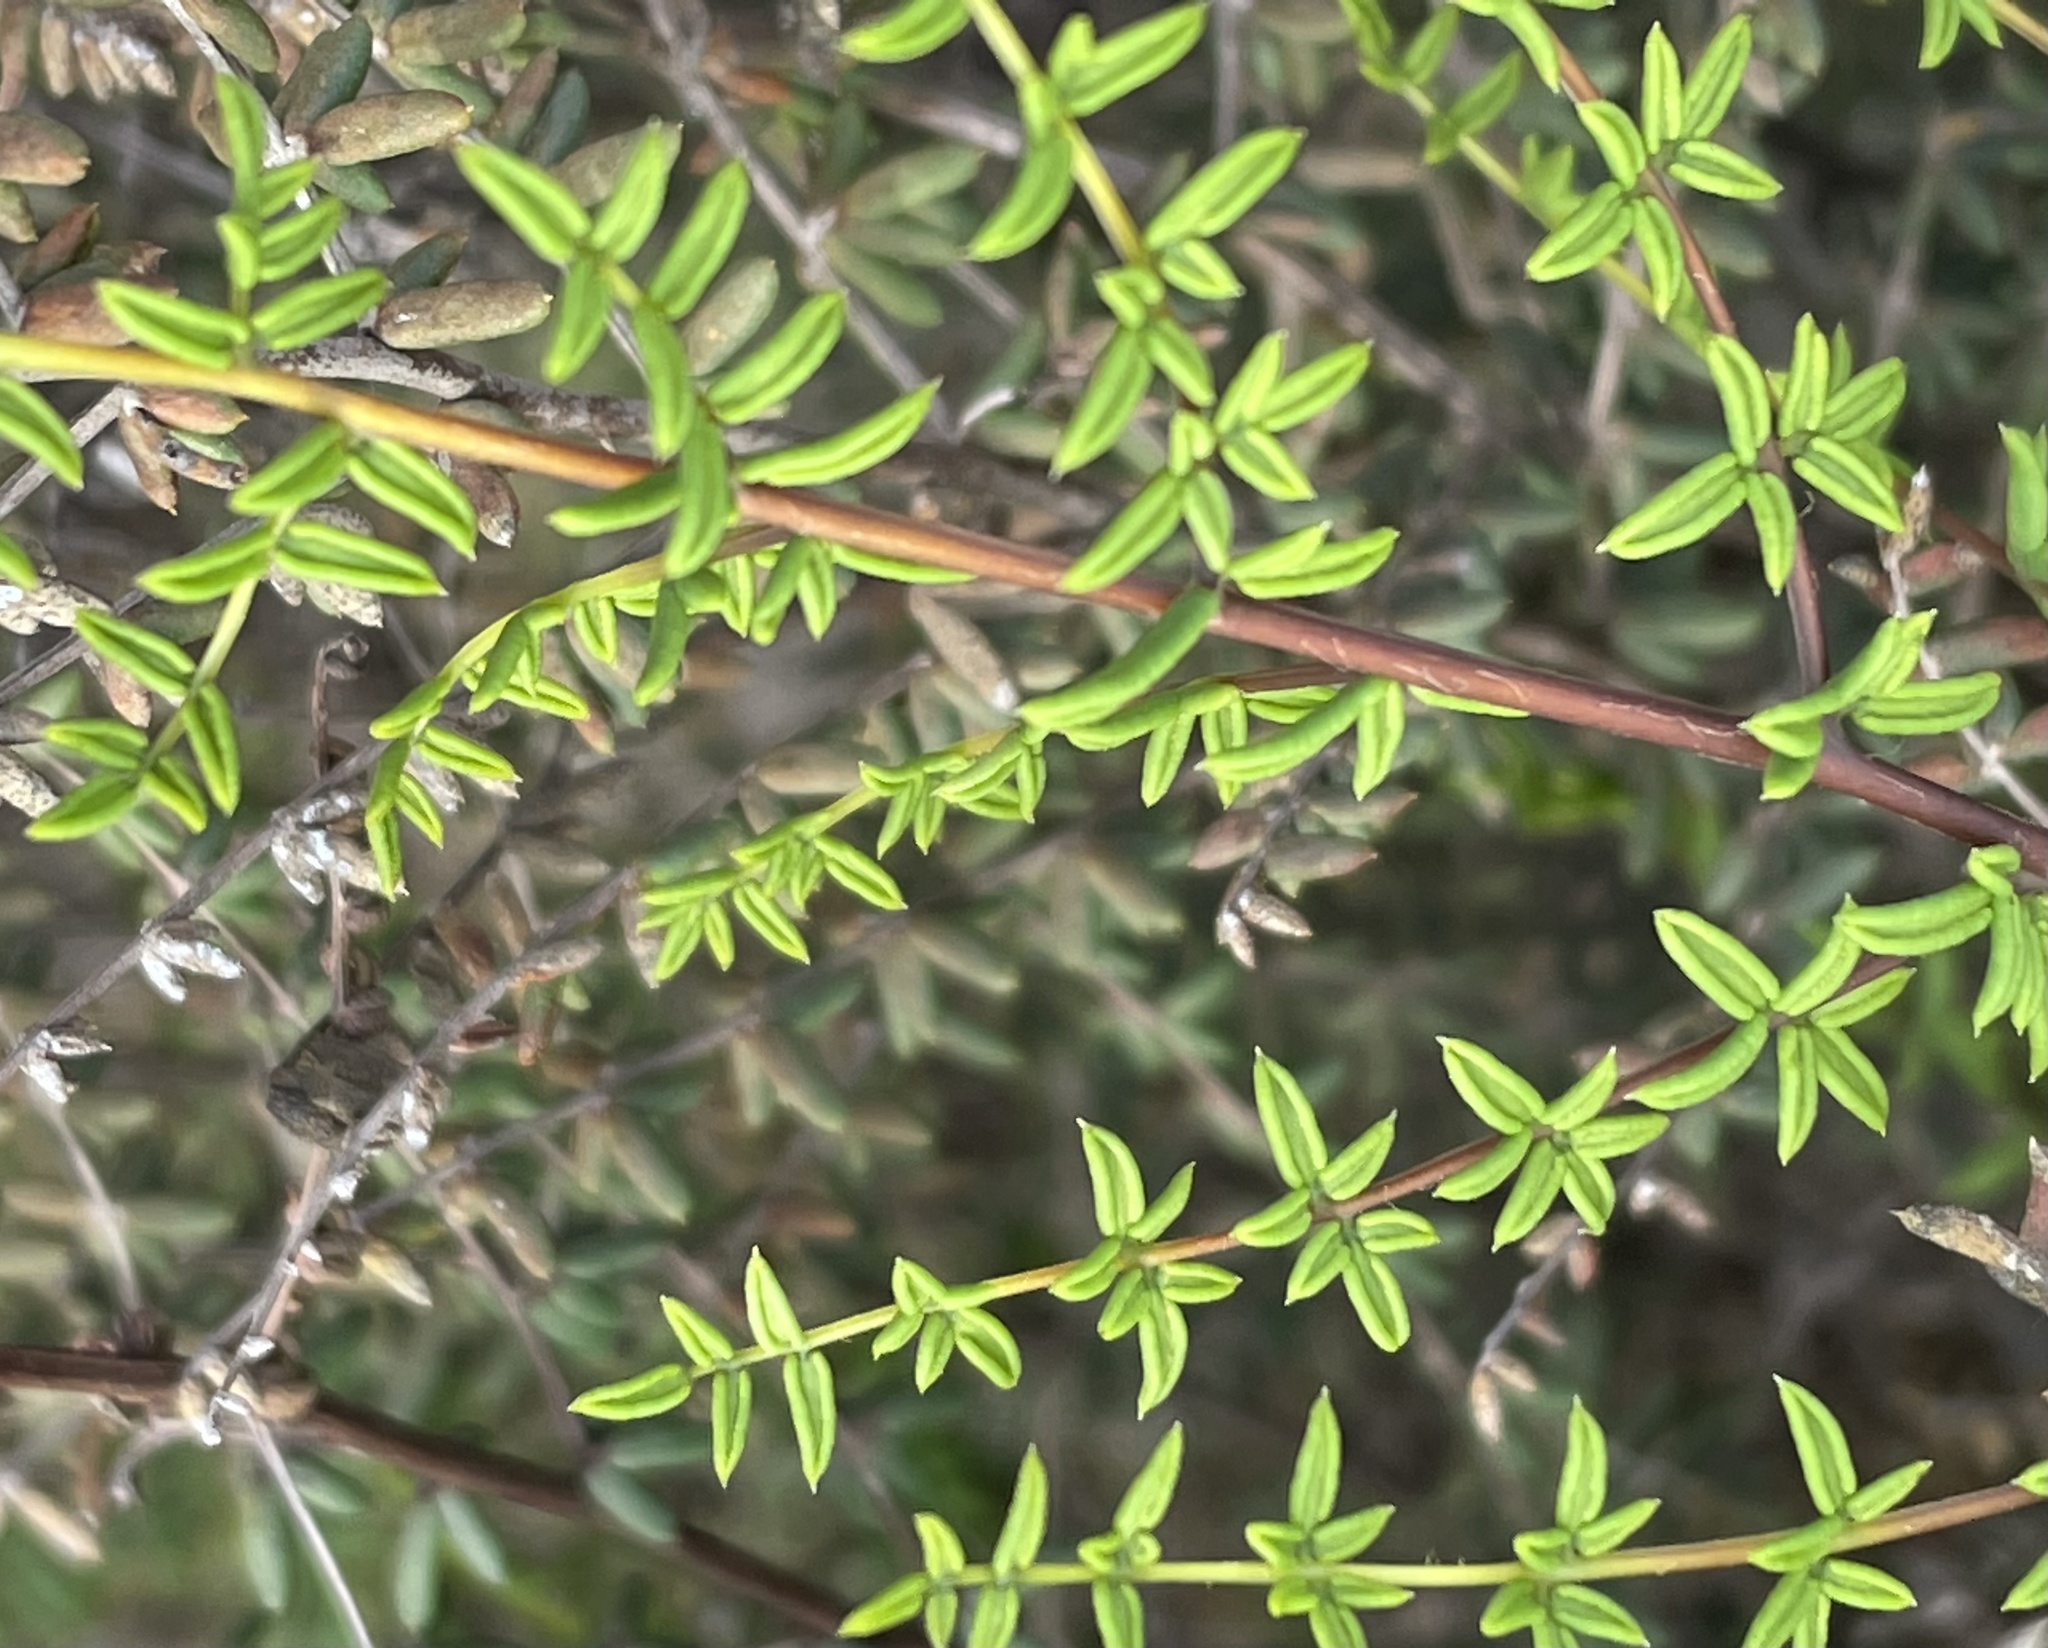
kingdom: Plantae
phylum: Tracheophyta
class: Polypodiopsida
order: Polypodiales
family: Pteridaceae
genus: Pellaea
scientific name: Pellaea mucronata
